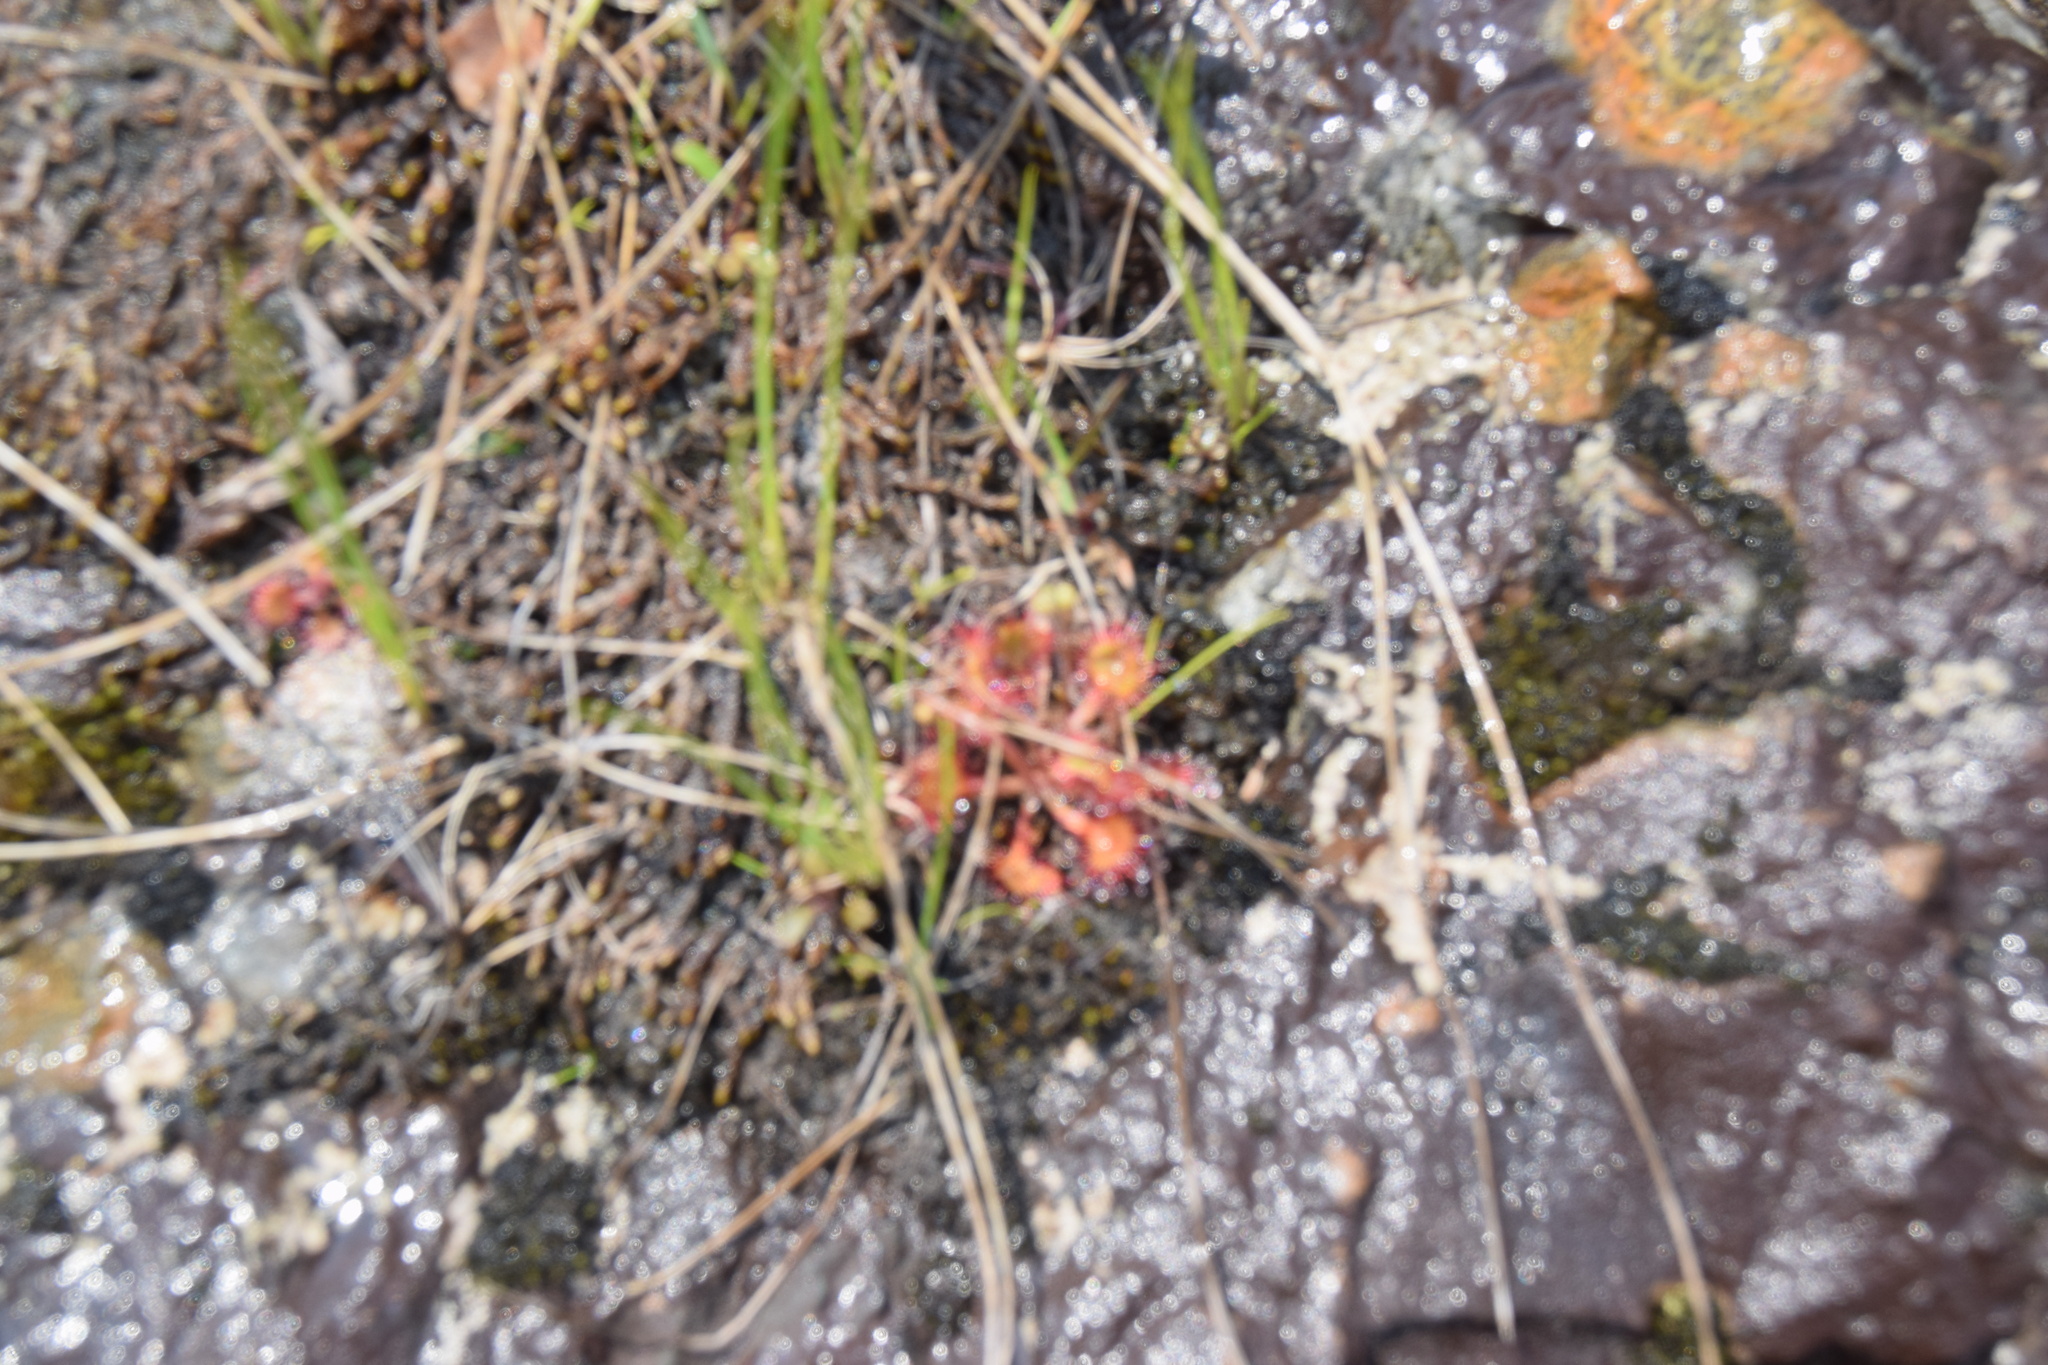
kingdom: Plantae
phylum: Tracheophyta
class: Magnoliopsida
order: Caryophyllales
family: Droseraceae
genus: Drosera
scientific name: Drosera rotundifolia
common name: Round-leaved sundew
